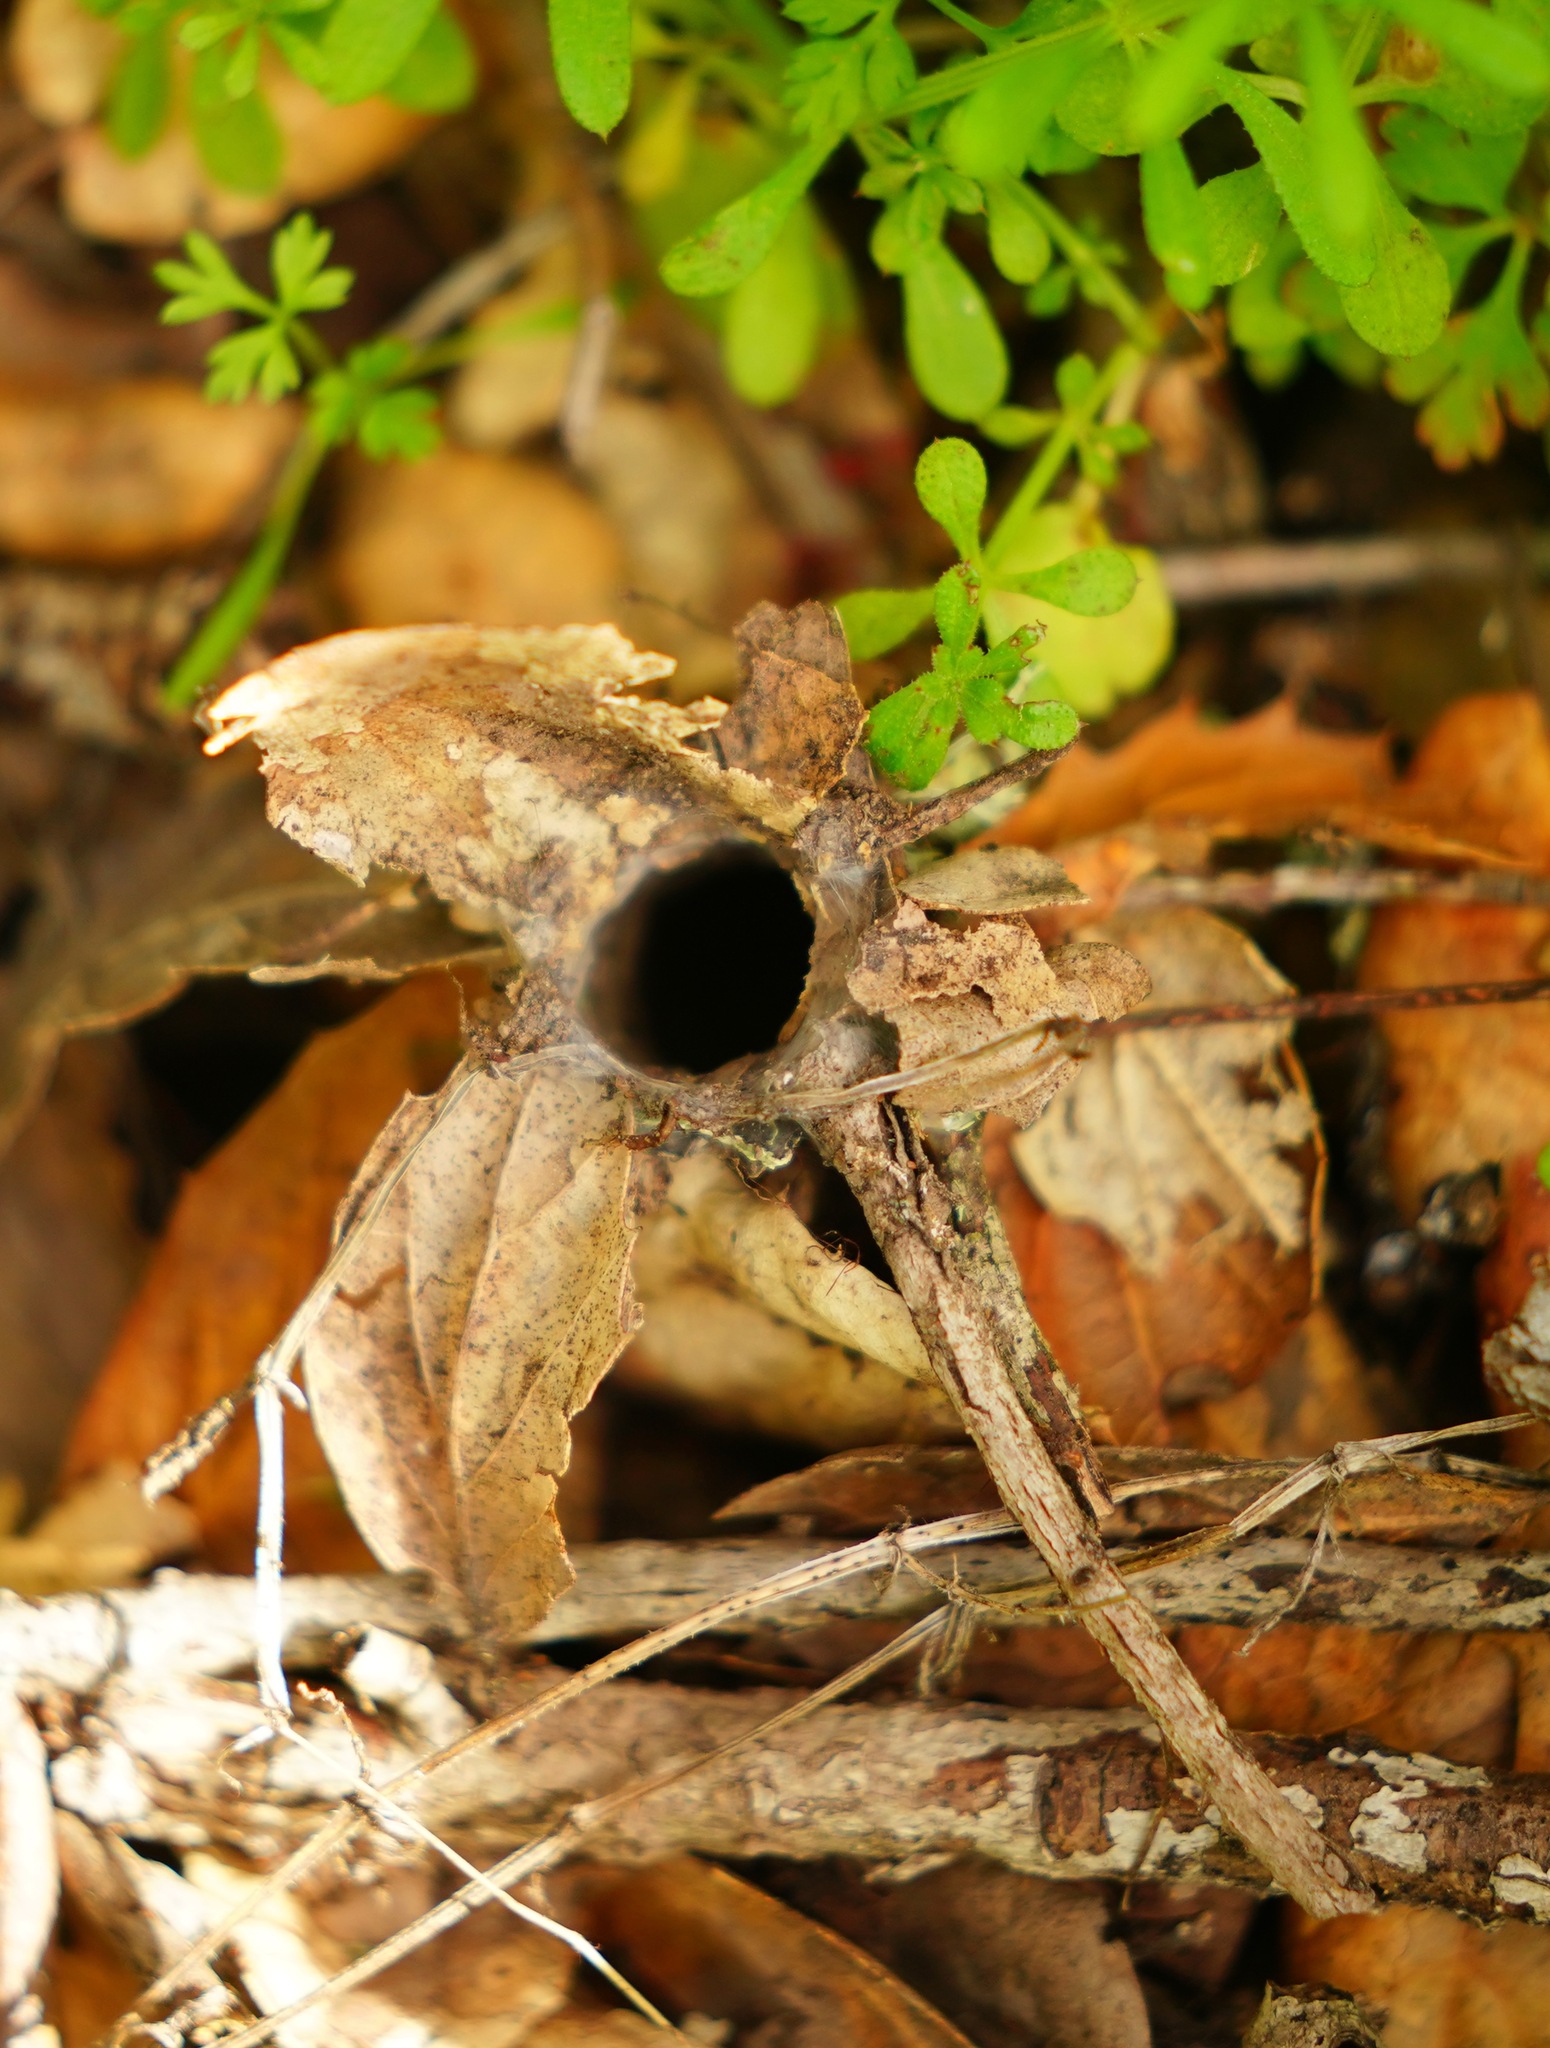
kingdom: Animalia
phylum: Arthropoda
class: Arachnida
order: Araneae
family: Antrodiaetidae
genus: Atypoides
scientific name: Atypoides riversi
